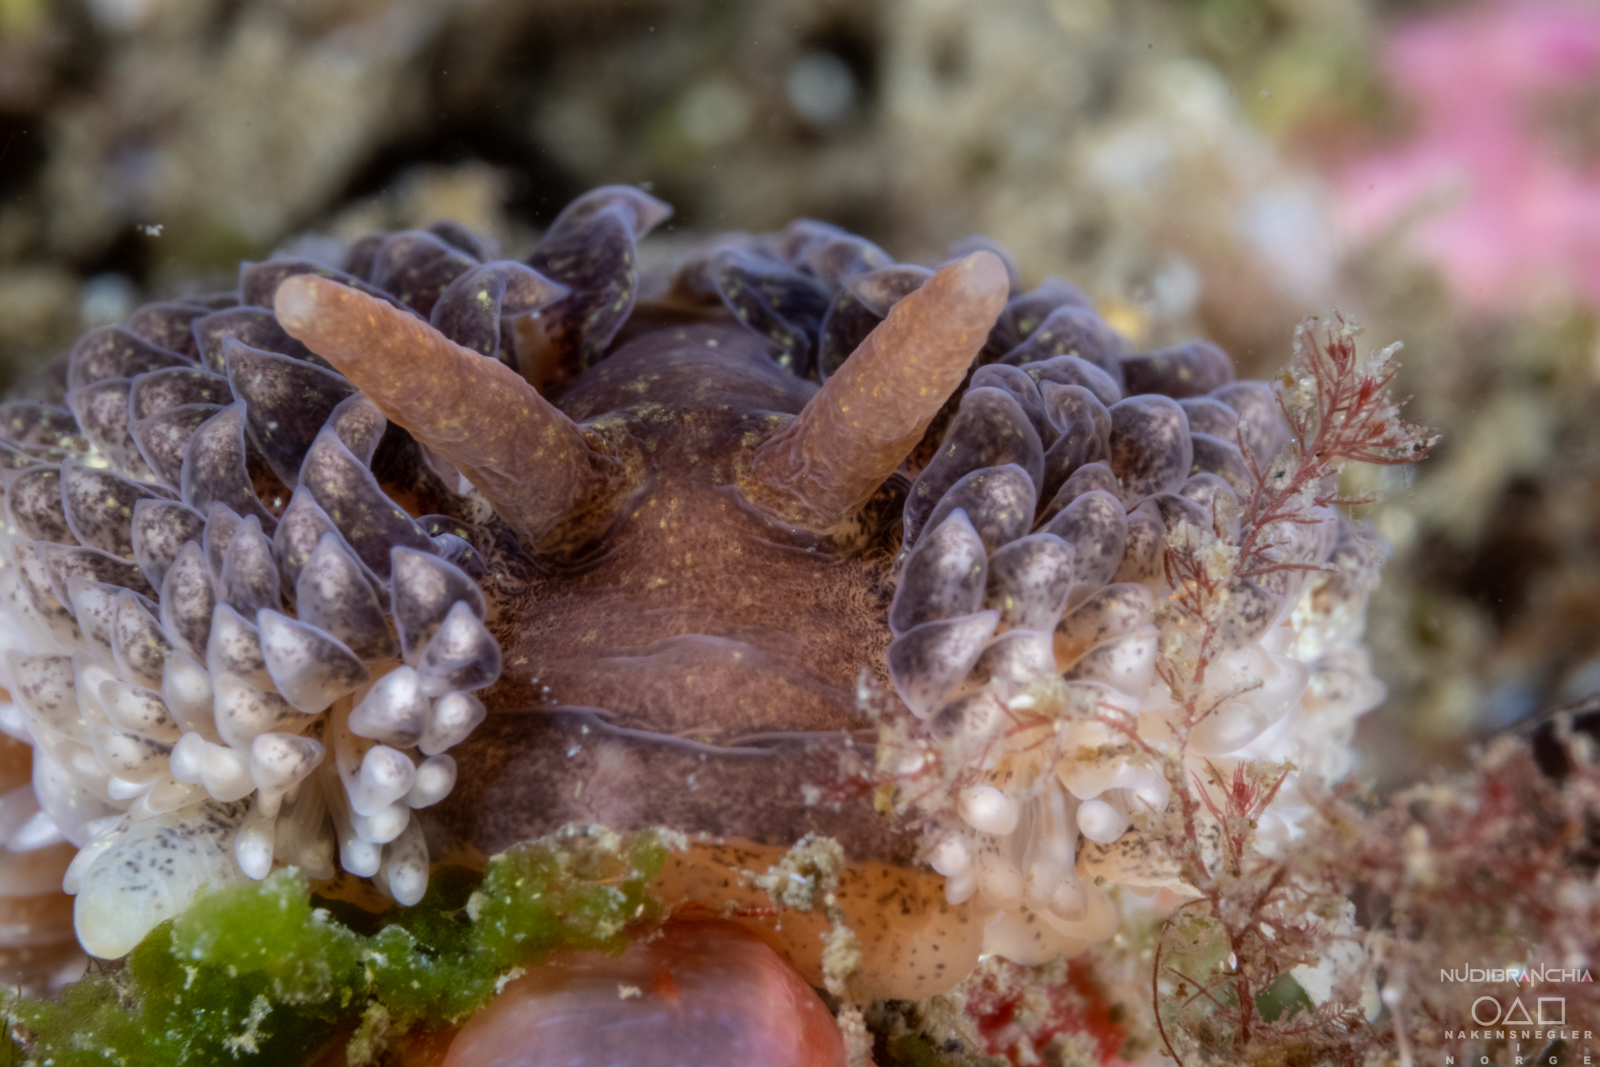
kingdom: Animalia
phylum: Mollusca
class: Gastropoda
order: Nudibranchia
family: Aeolidiidae
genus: Aeolidia
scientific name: Aeolidia papillosa
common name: Common grey sea slug
